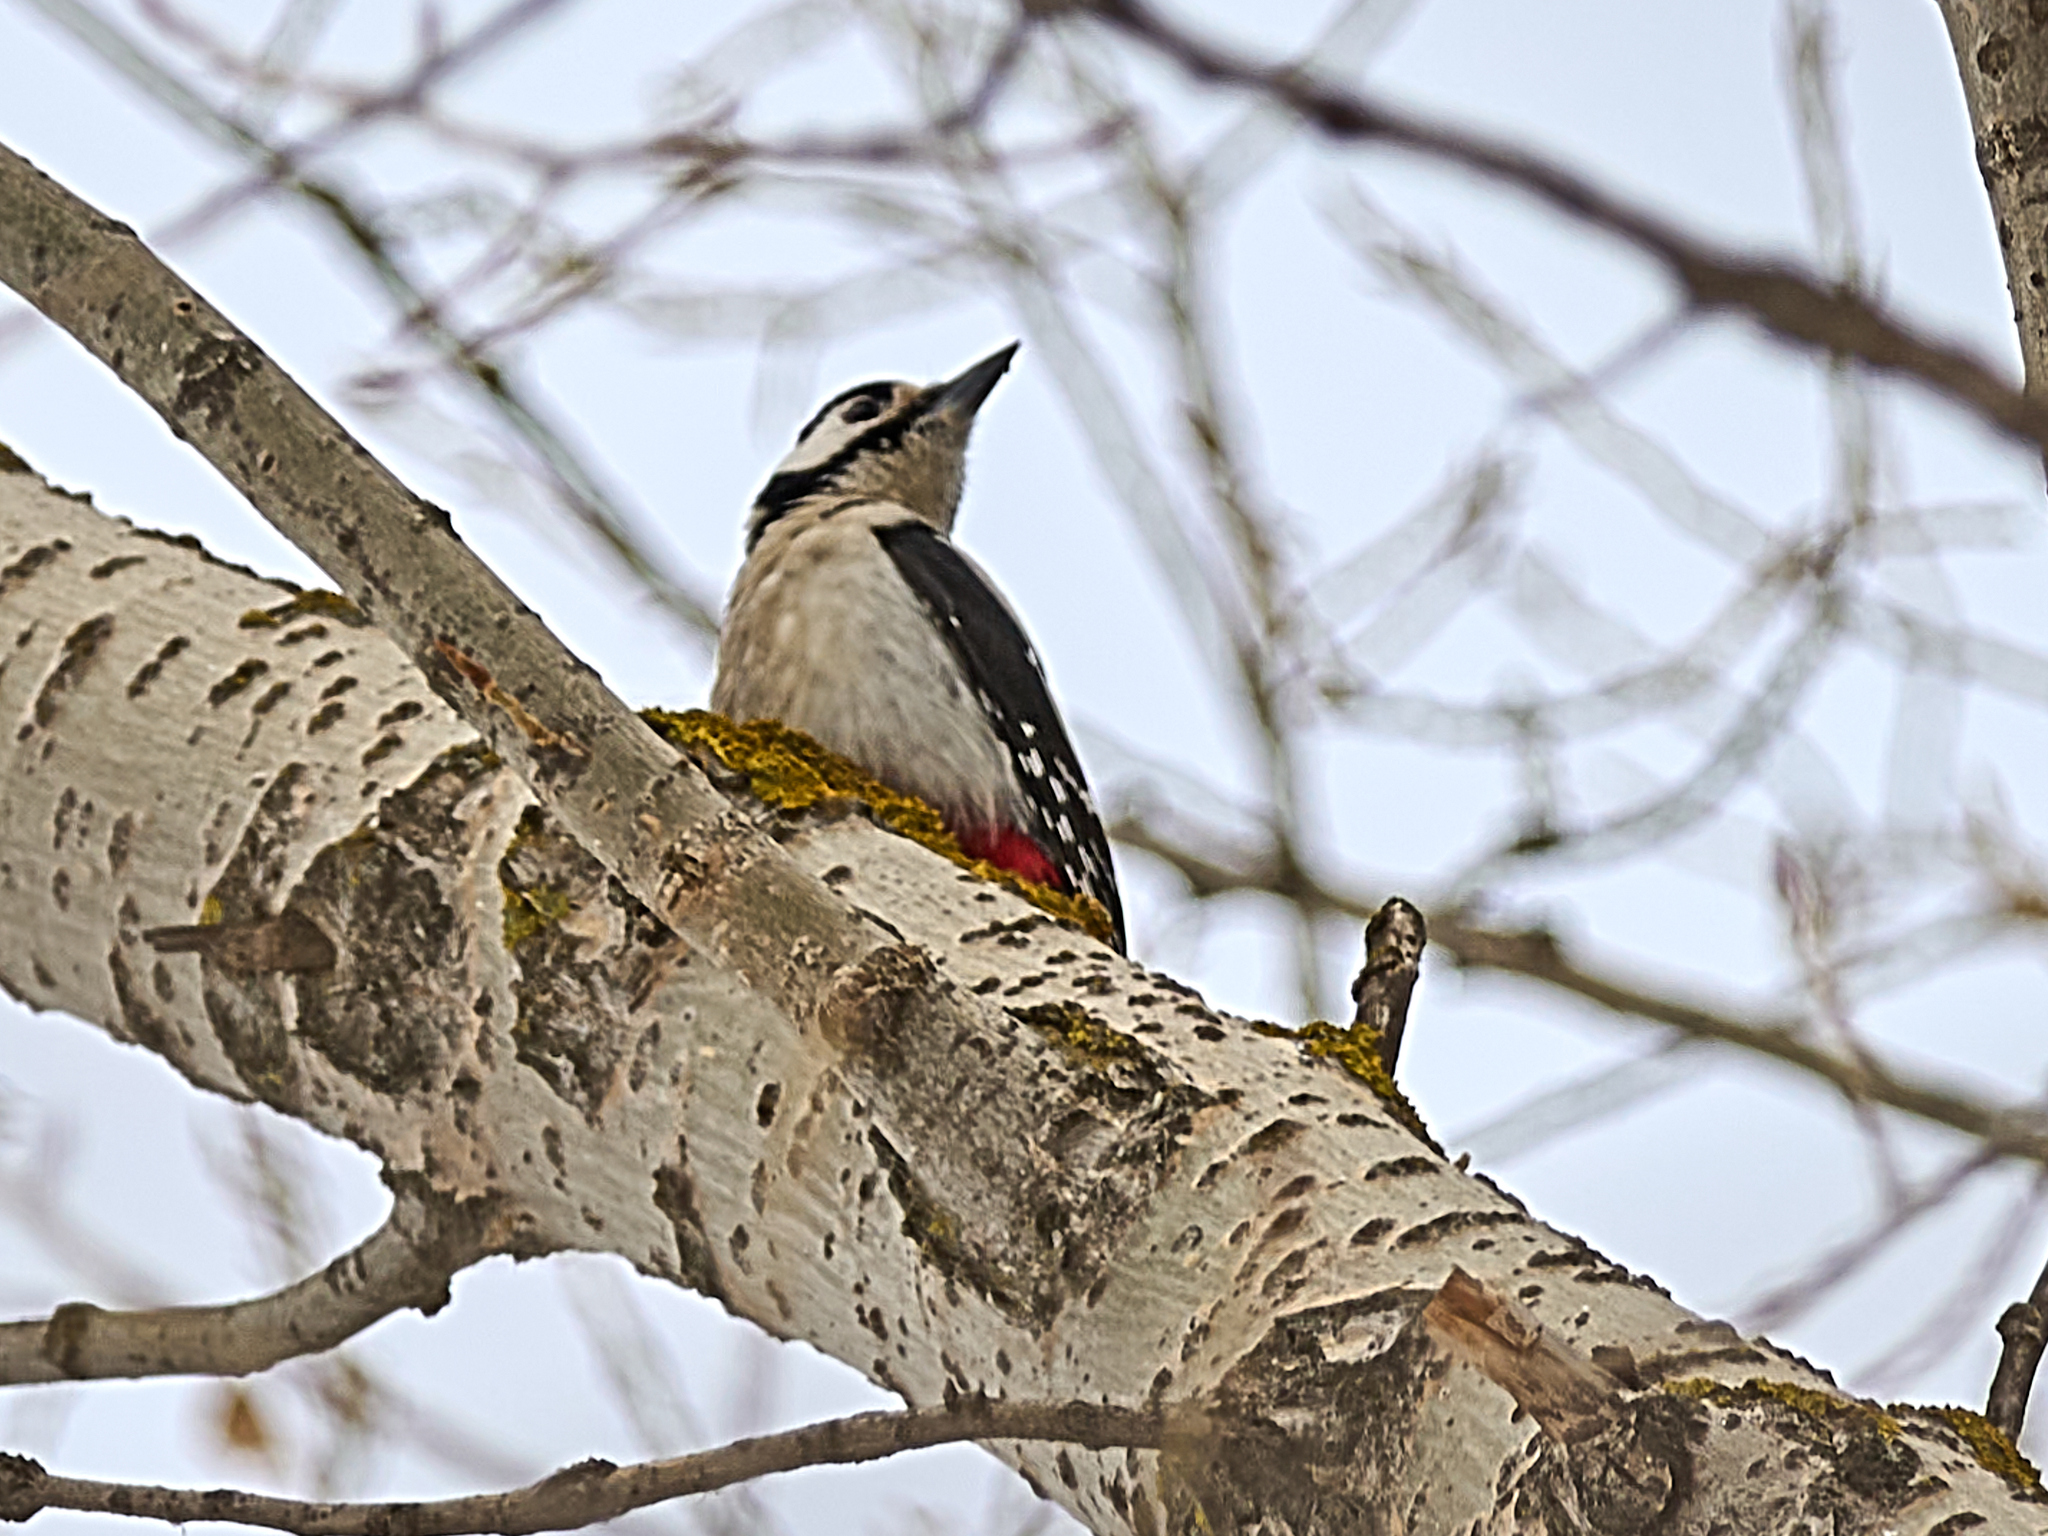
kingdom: Animalia
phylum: Chordata
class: Aves
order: Piciformes
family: Picidae
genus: Dendrocopos
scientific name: Dendrocopos major
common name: Great spotted woodpecker
